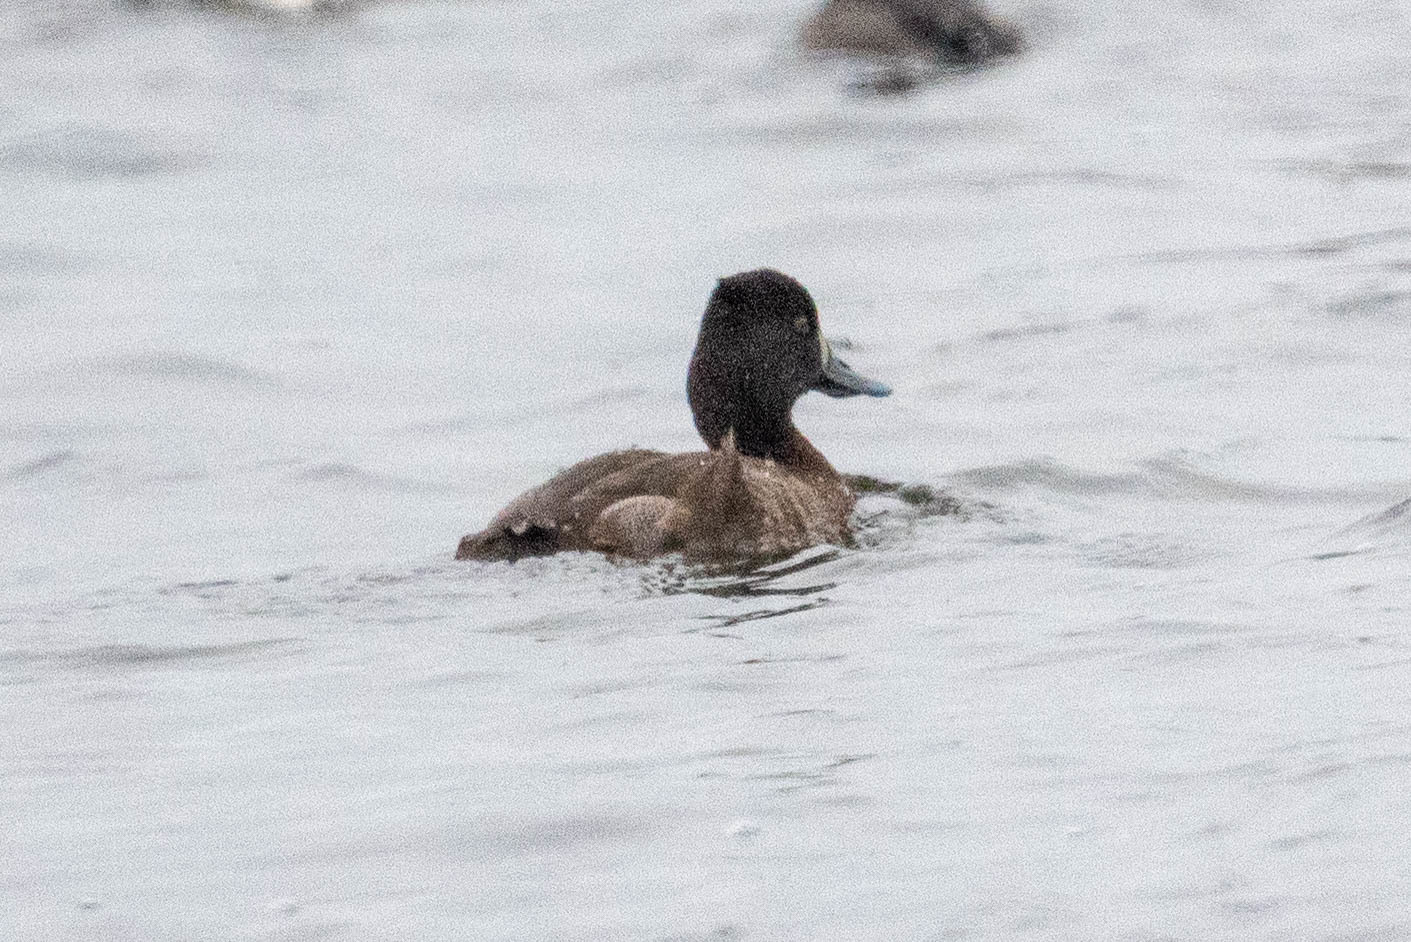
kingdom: Animalia
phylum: Chordata
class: Aves
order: Anseriformes
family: Anatidae
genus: Aythya
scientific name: Aythya affinis
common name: Lesser scaup
